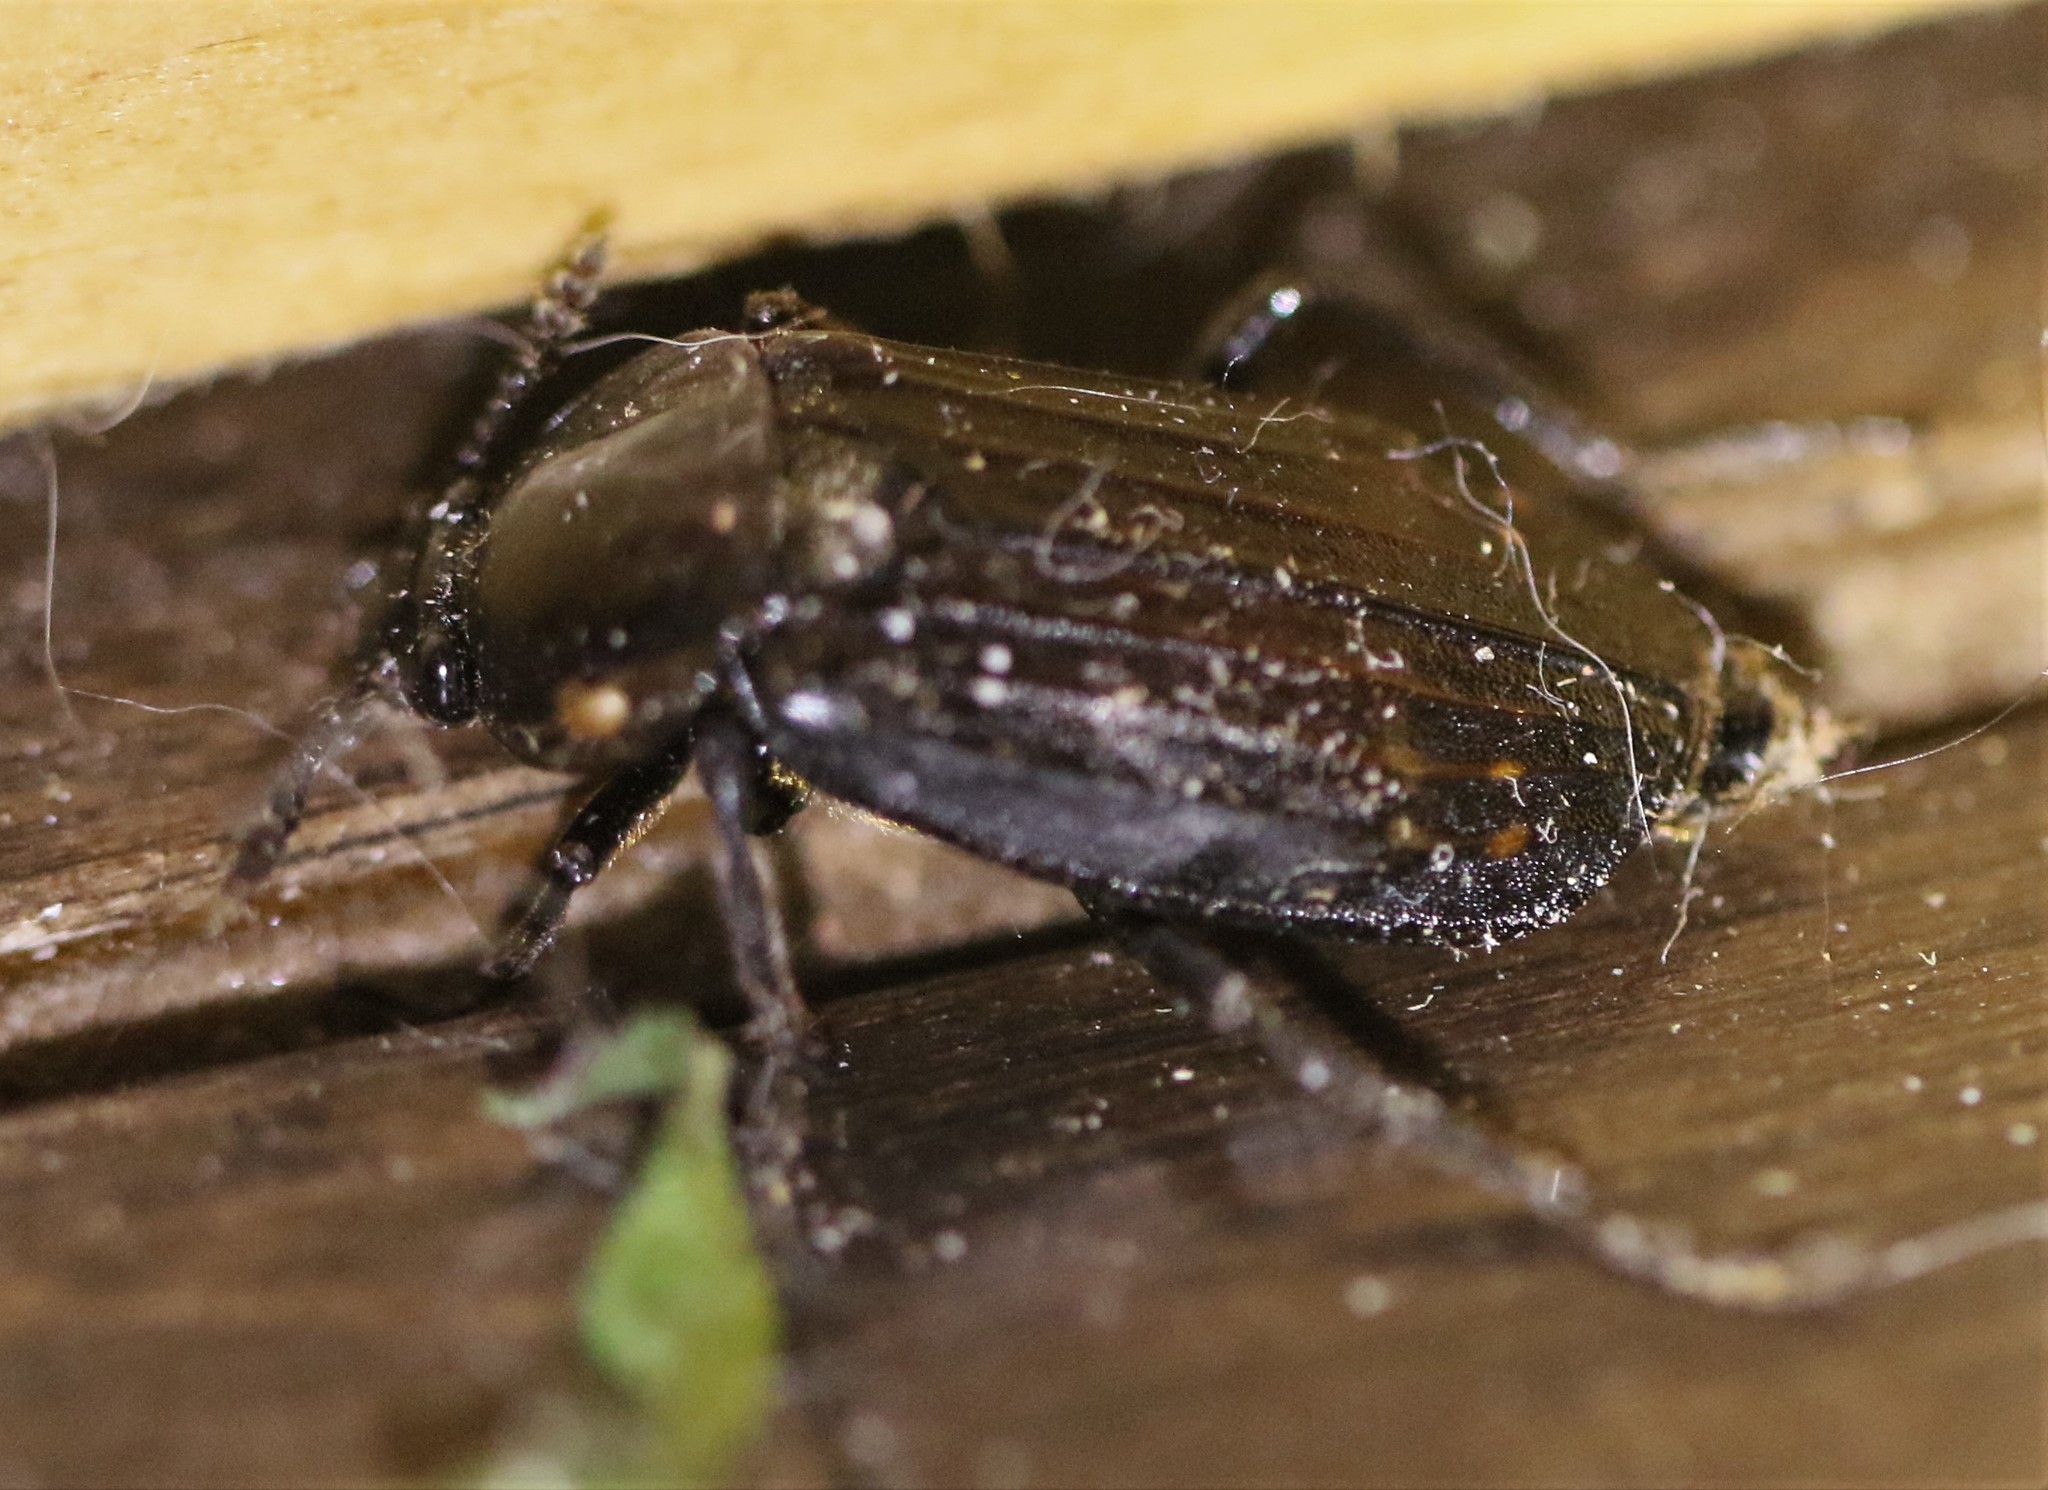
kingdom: Animalia
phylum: Arthropoda
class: Insecta
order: Coleoptera
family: Staphylinidae
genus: Necrodes
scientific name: Necrodes surinamensis
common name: Red-lined carrion beetle
